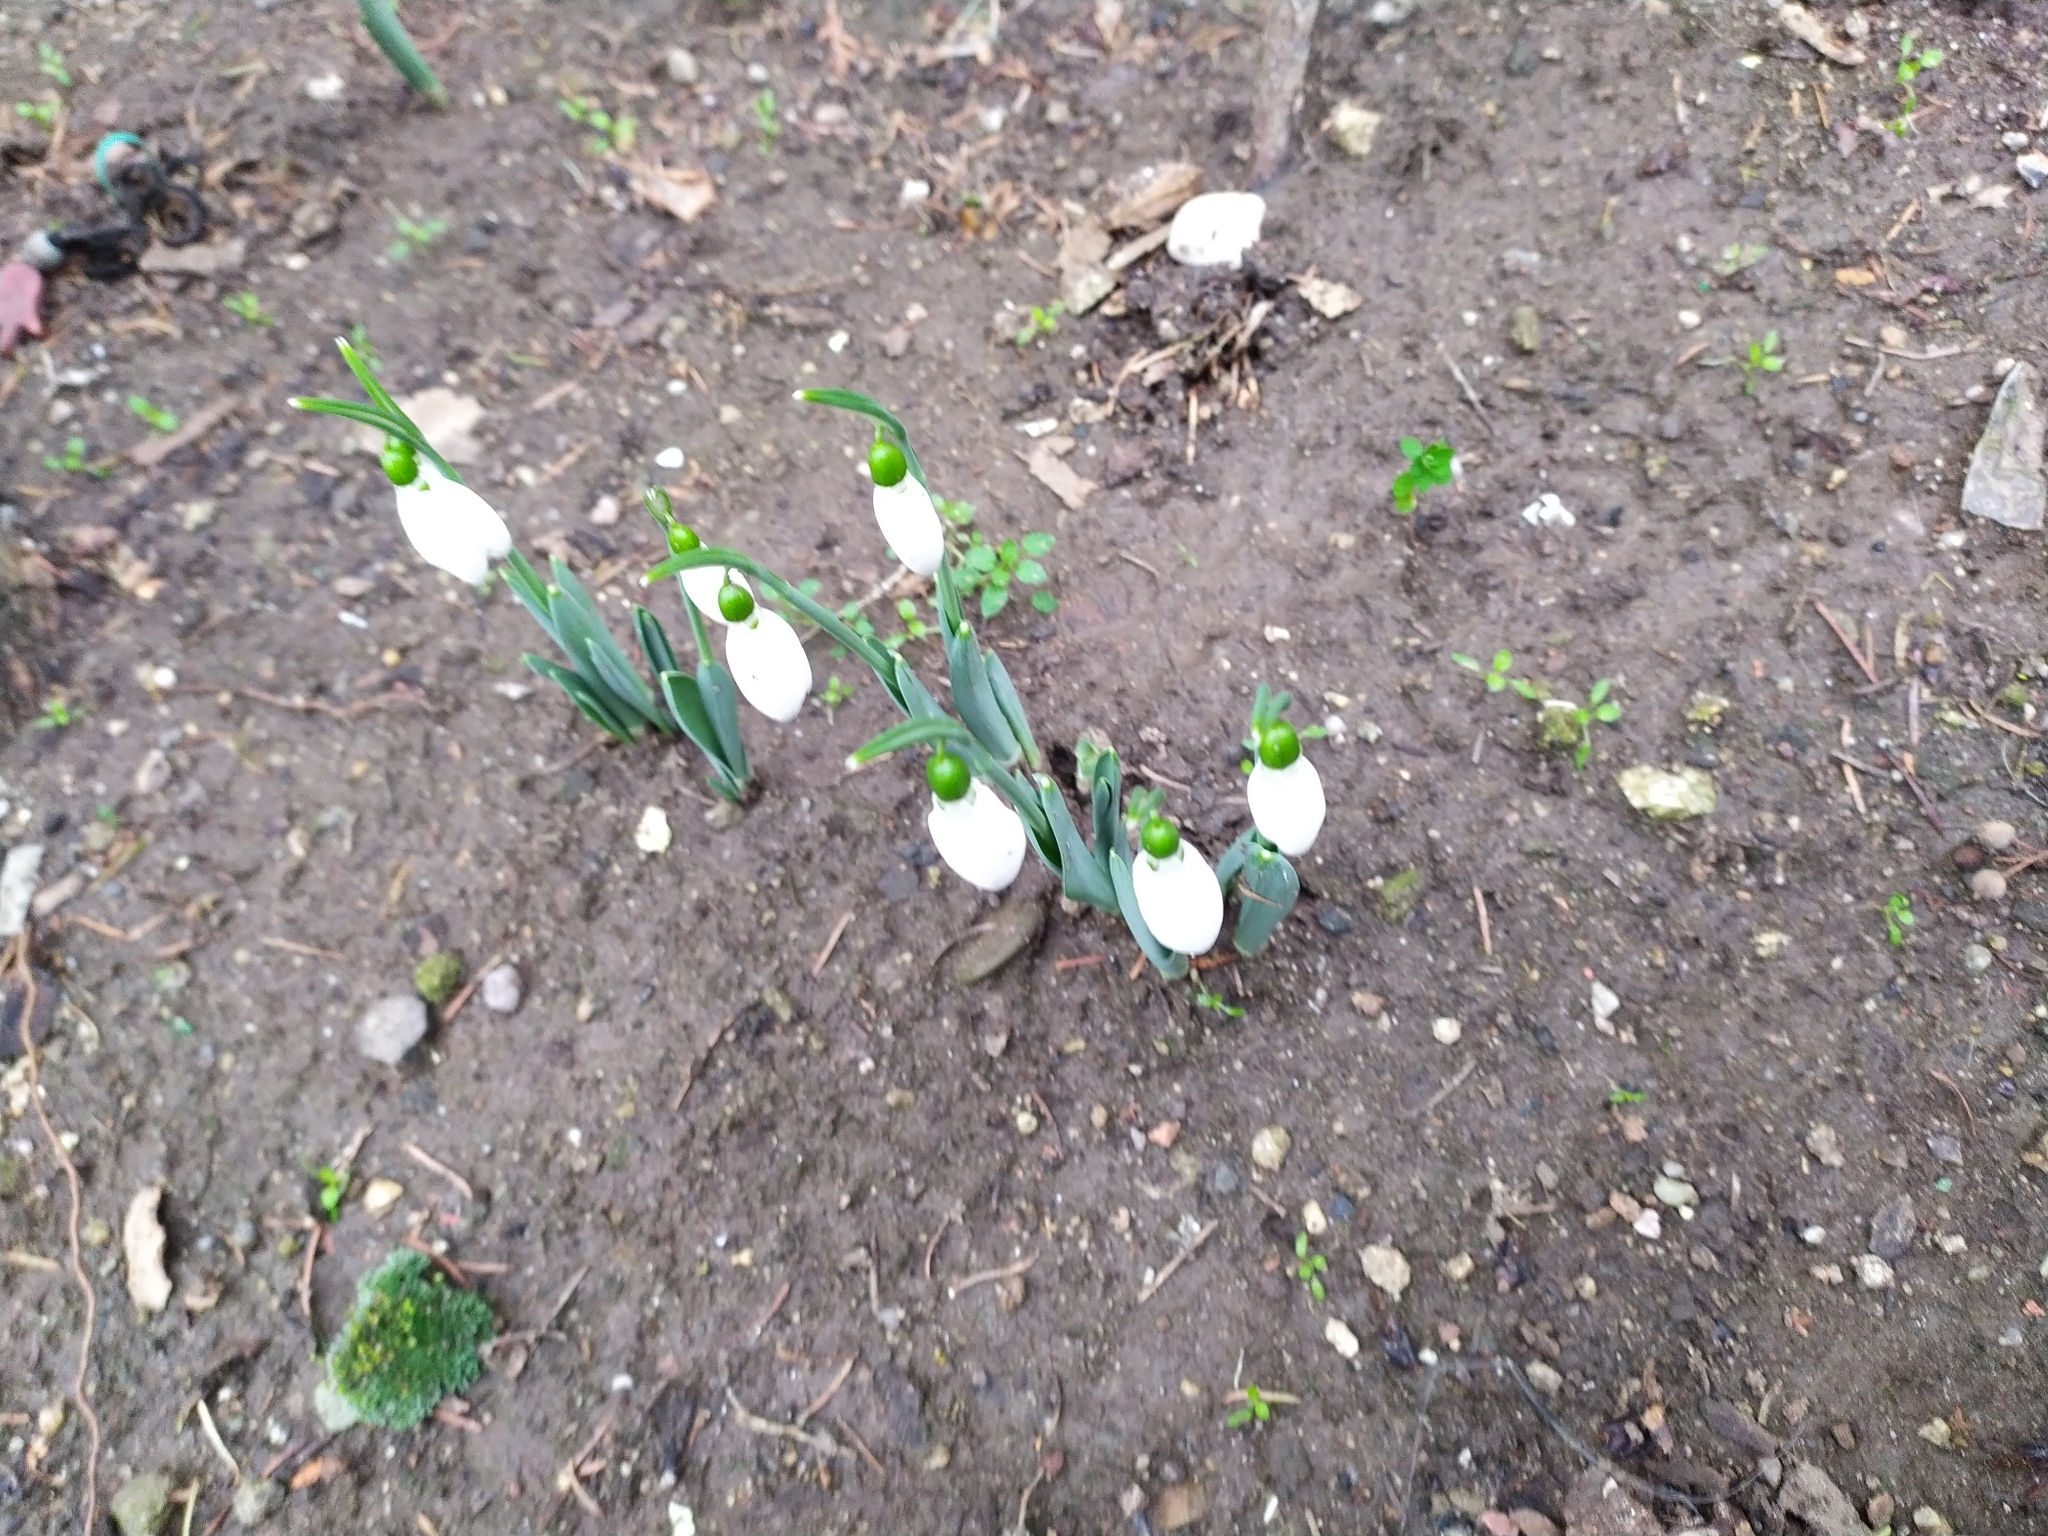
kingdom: Plantae
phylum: Tracheophyta
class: Liliopsida
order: Asparagales
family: Amaryllidaceae
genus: Galanthus
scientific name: Galanthus elwesii
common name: Greater snowdrop
